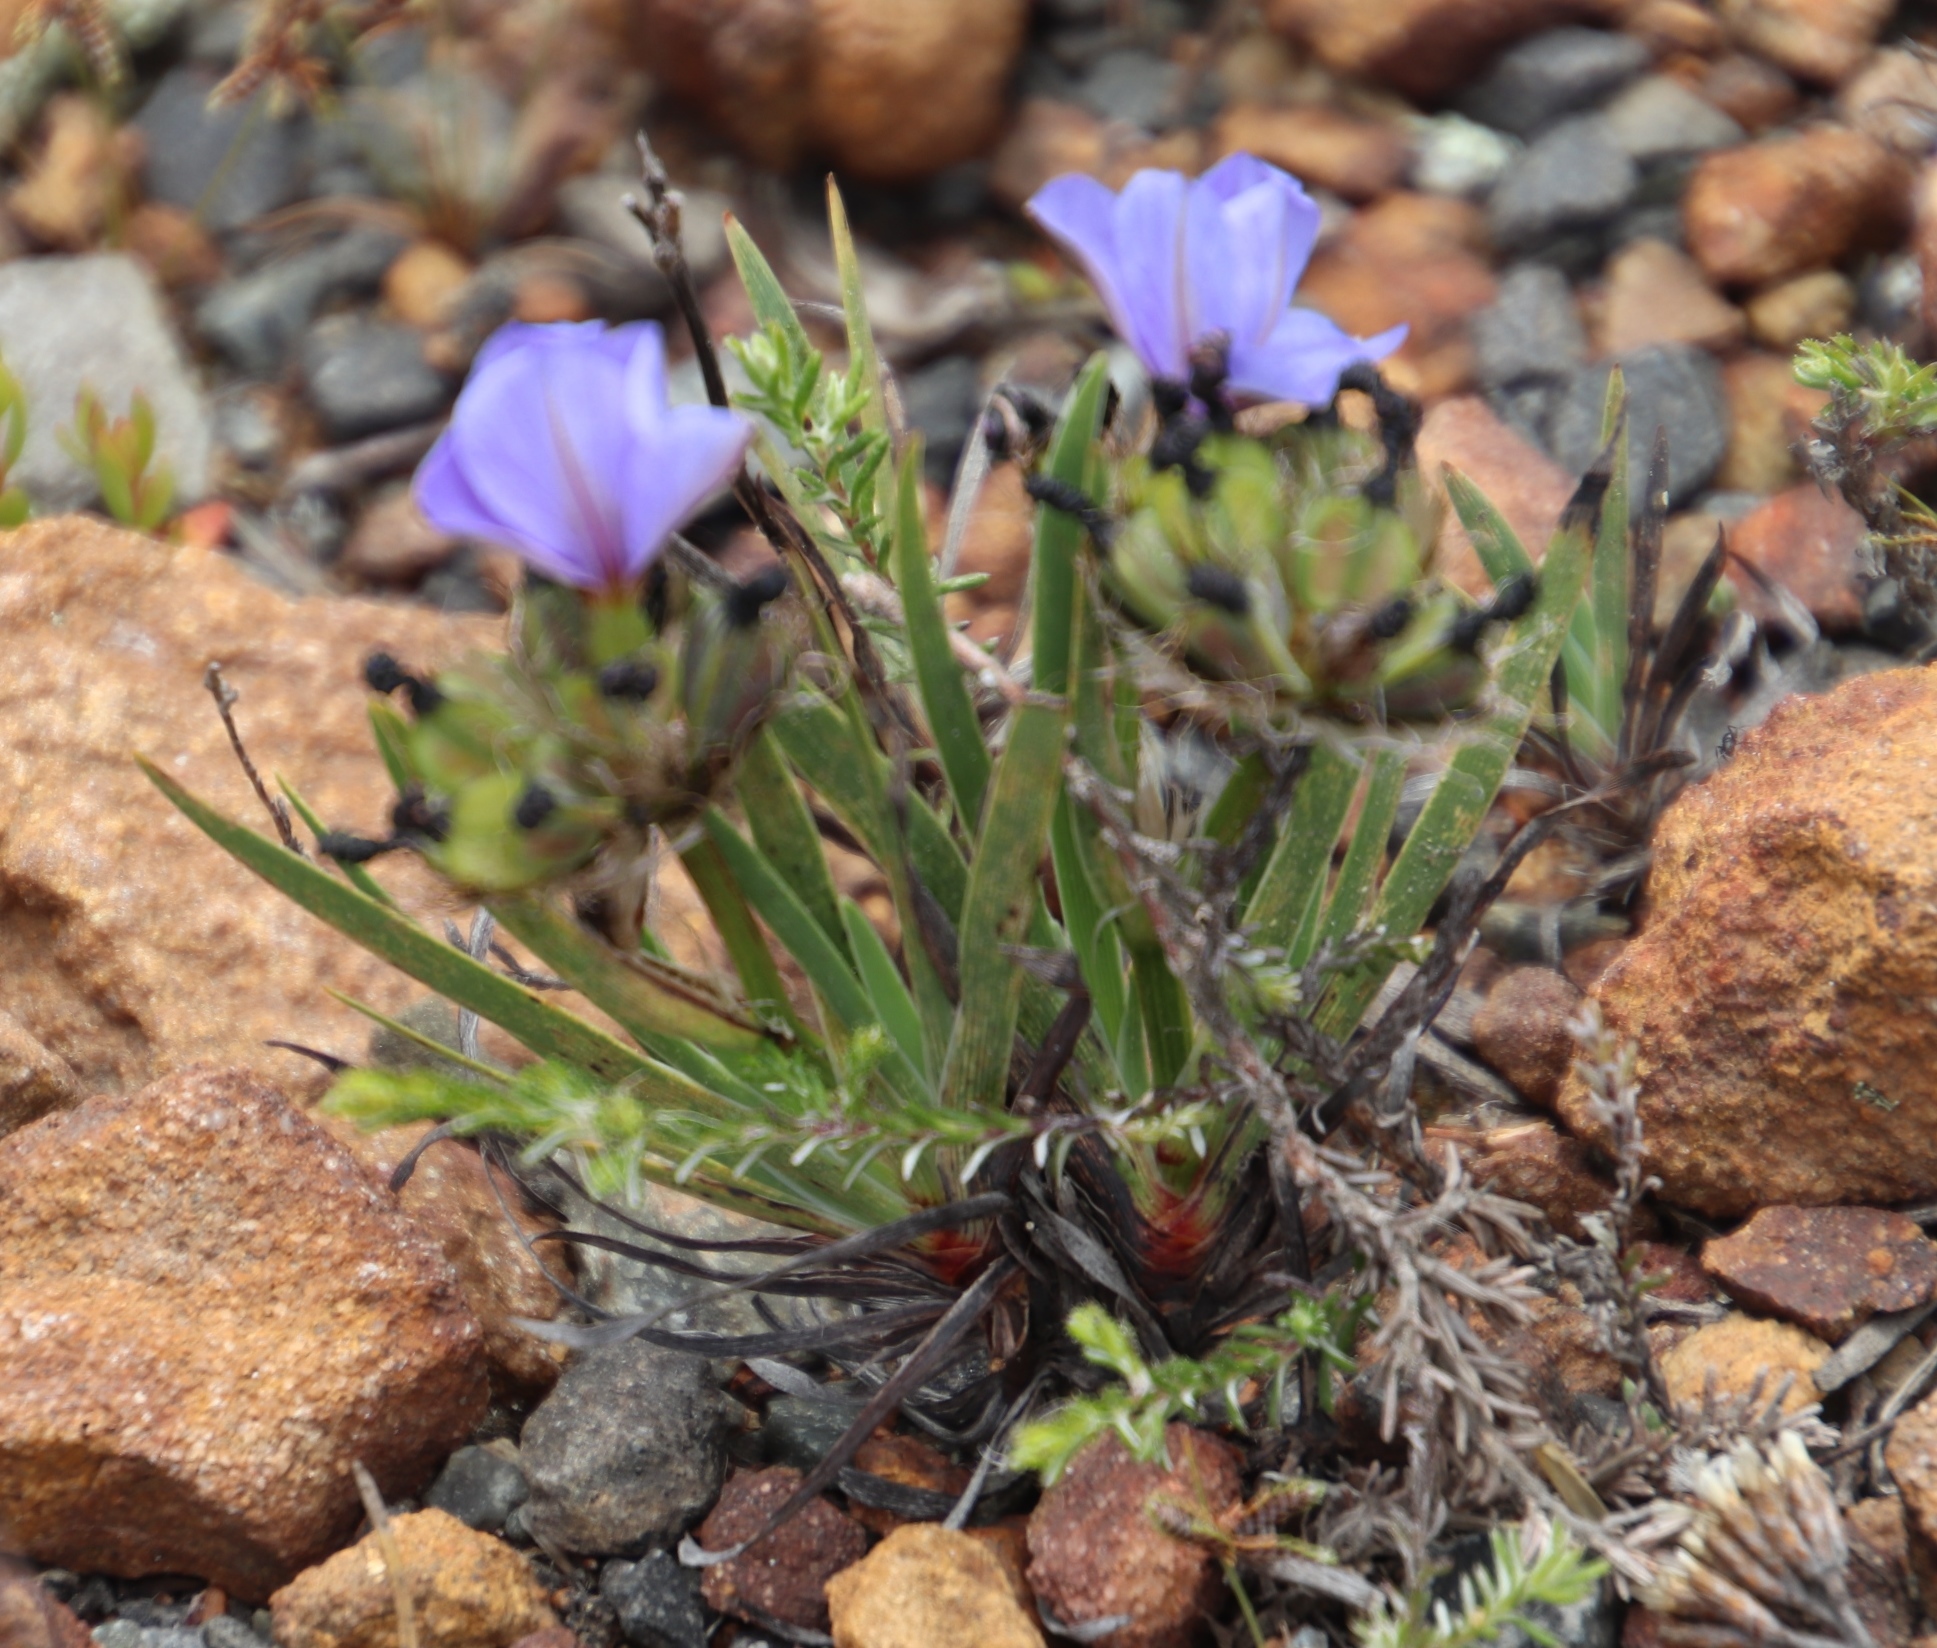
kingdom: Plantae
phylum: Tracheophyta
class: Liliopsida
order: Asparagales
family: Iridaceae
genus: Aristea
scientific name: Aristea africana
